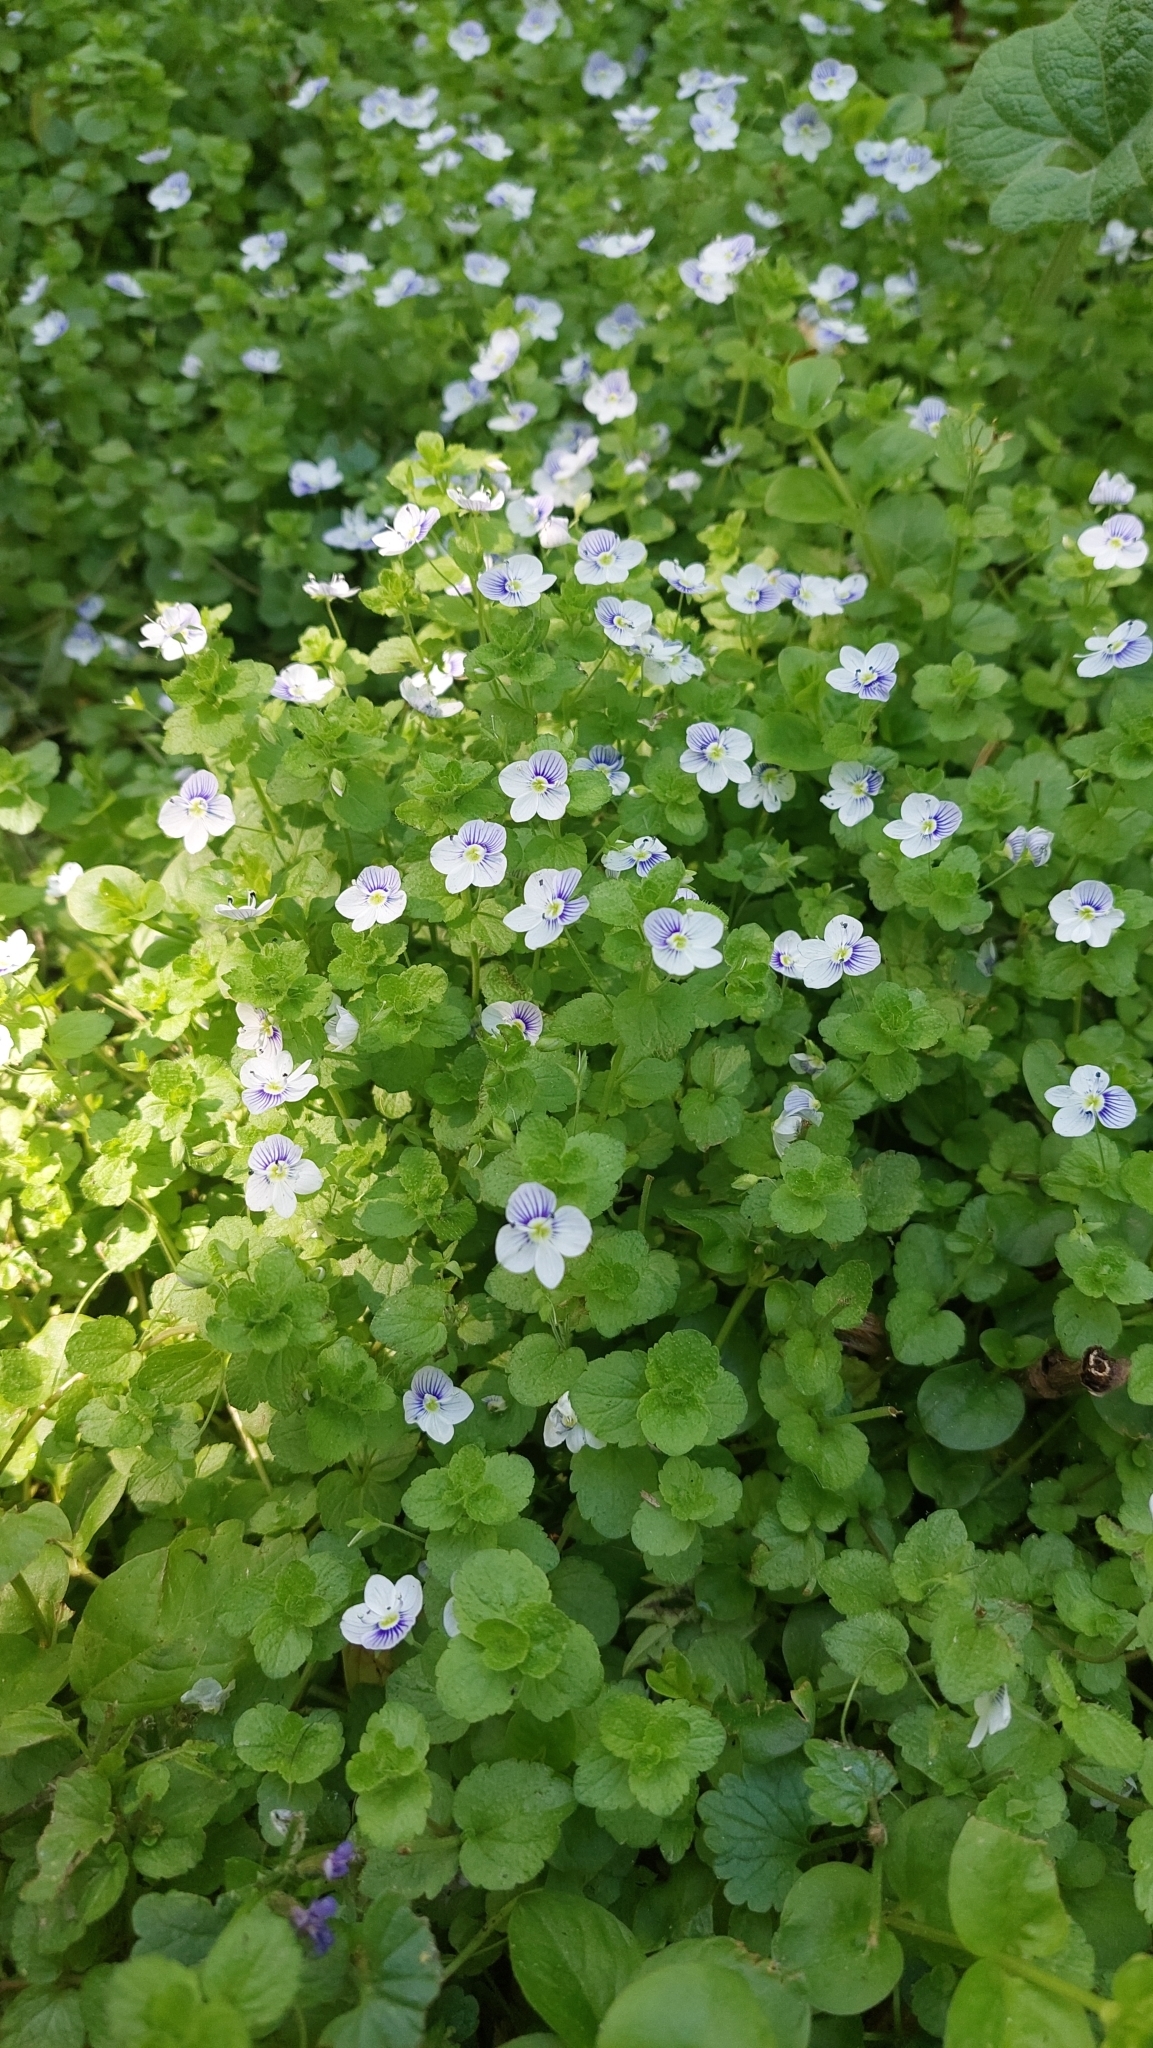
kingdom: Plantae
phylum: Tracheophyta
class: Magnoliopsida
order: Lamiales
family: Plantaginaceae
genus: Veronica
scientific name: Veronica filiformis
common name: Slender speedwell
